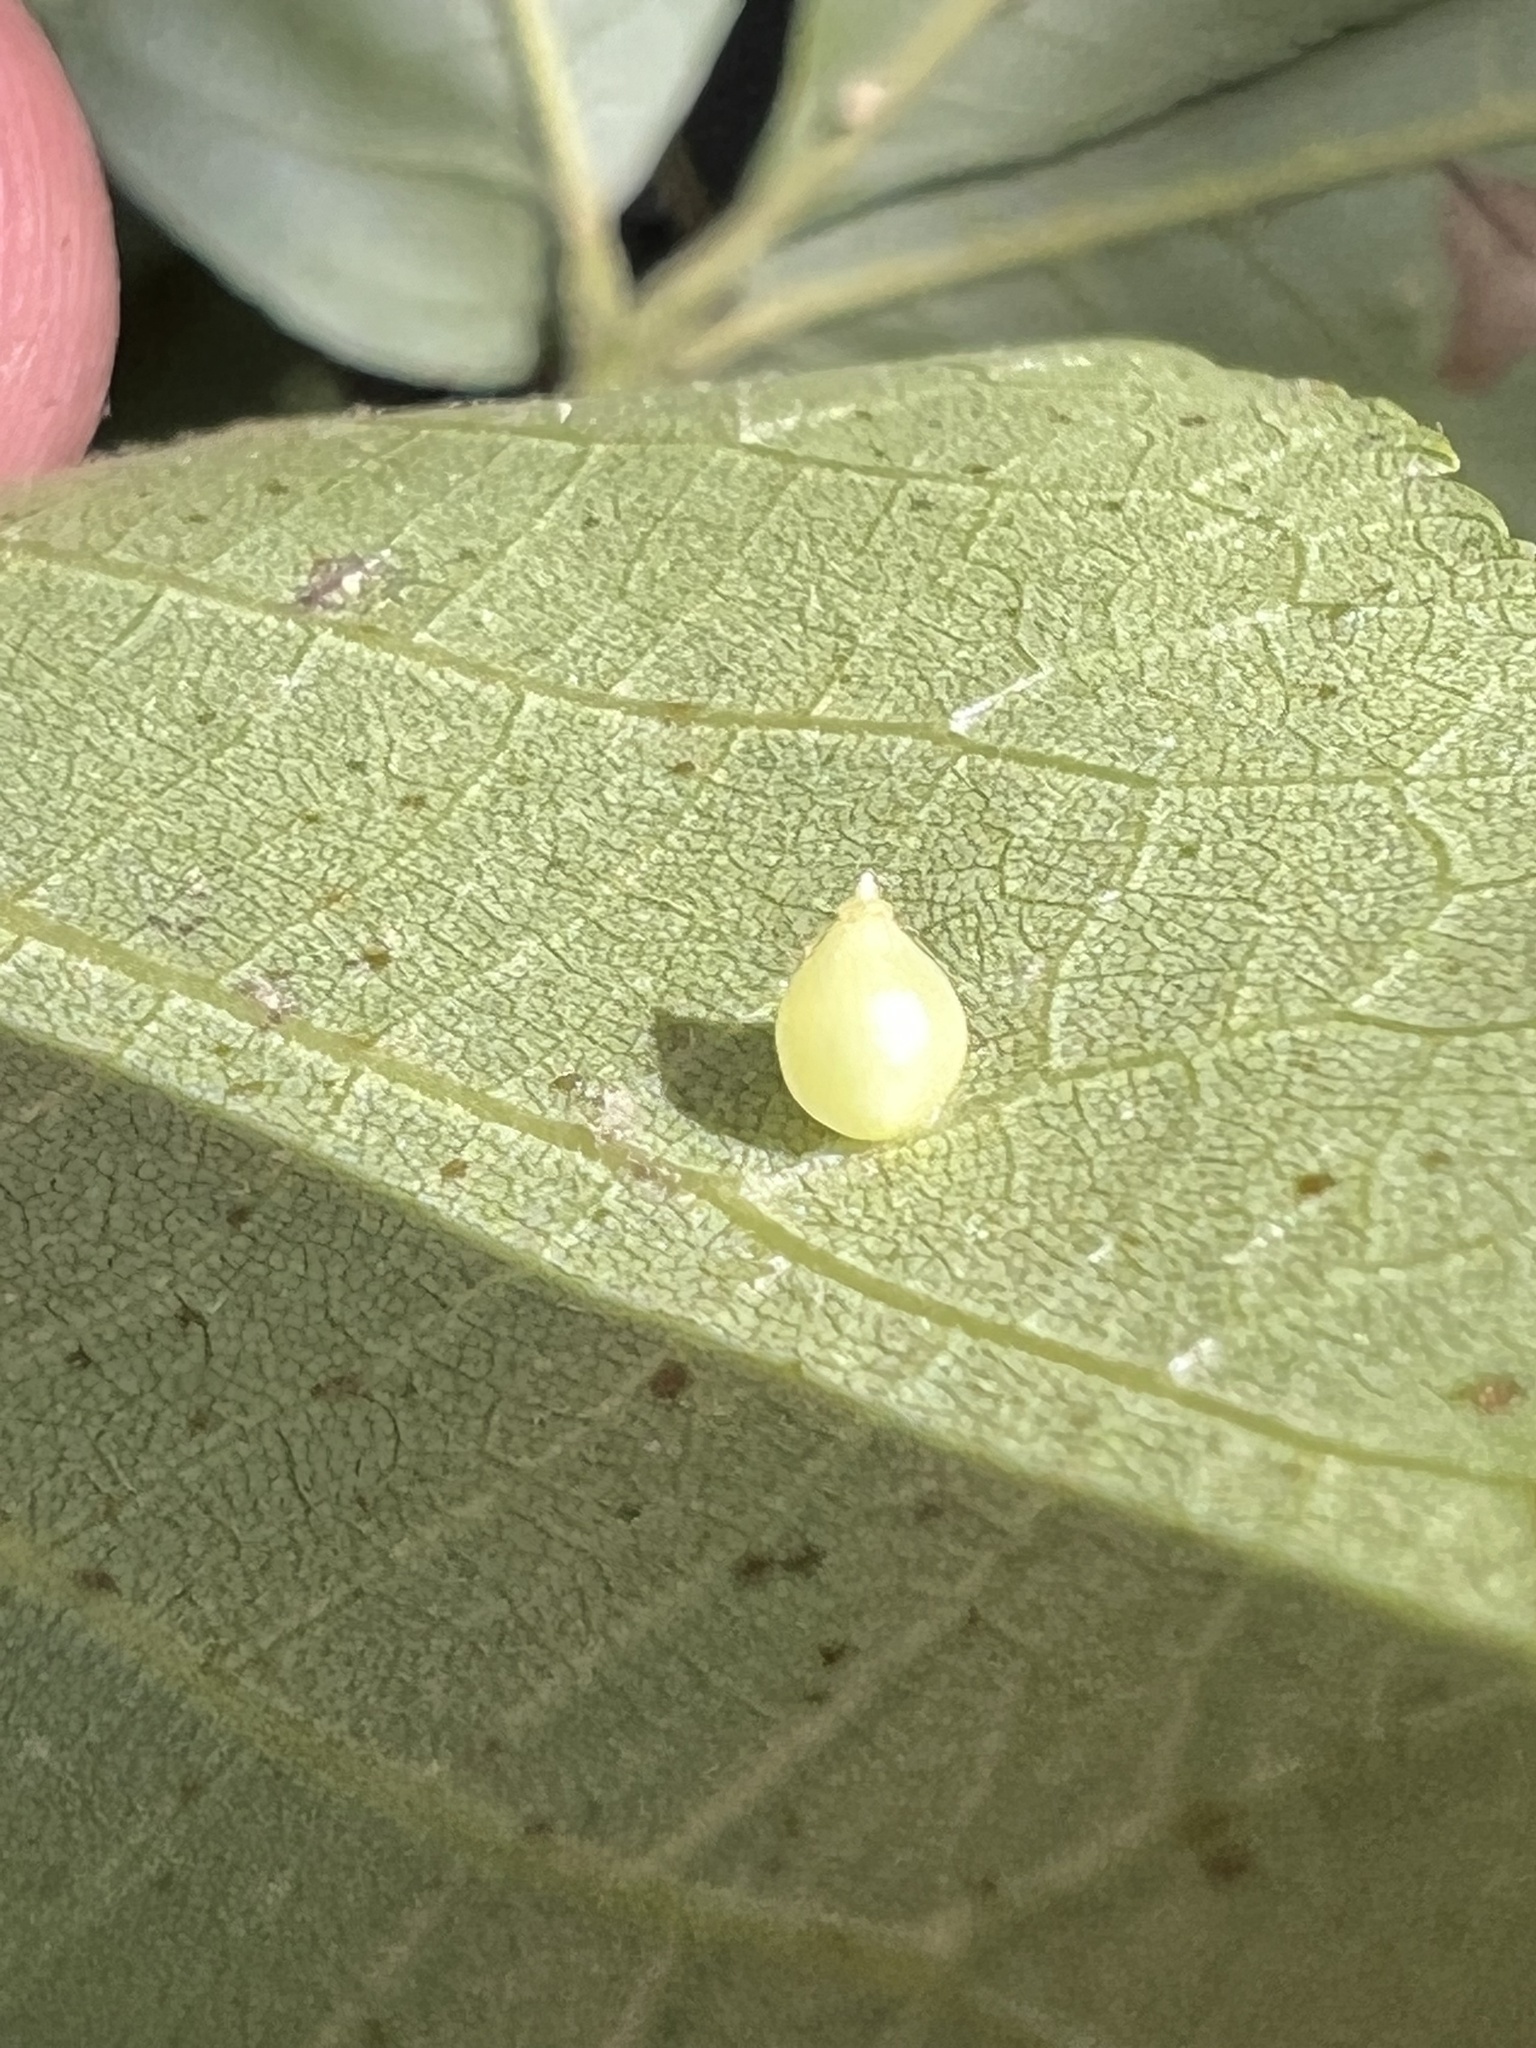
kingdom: Animalia
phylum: Arthropoda
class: Insecta
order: Diptera
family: Cecidomyiidae
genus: Caryomyia
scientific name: Caryomyia caryaecola
